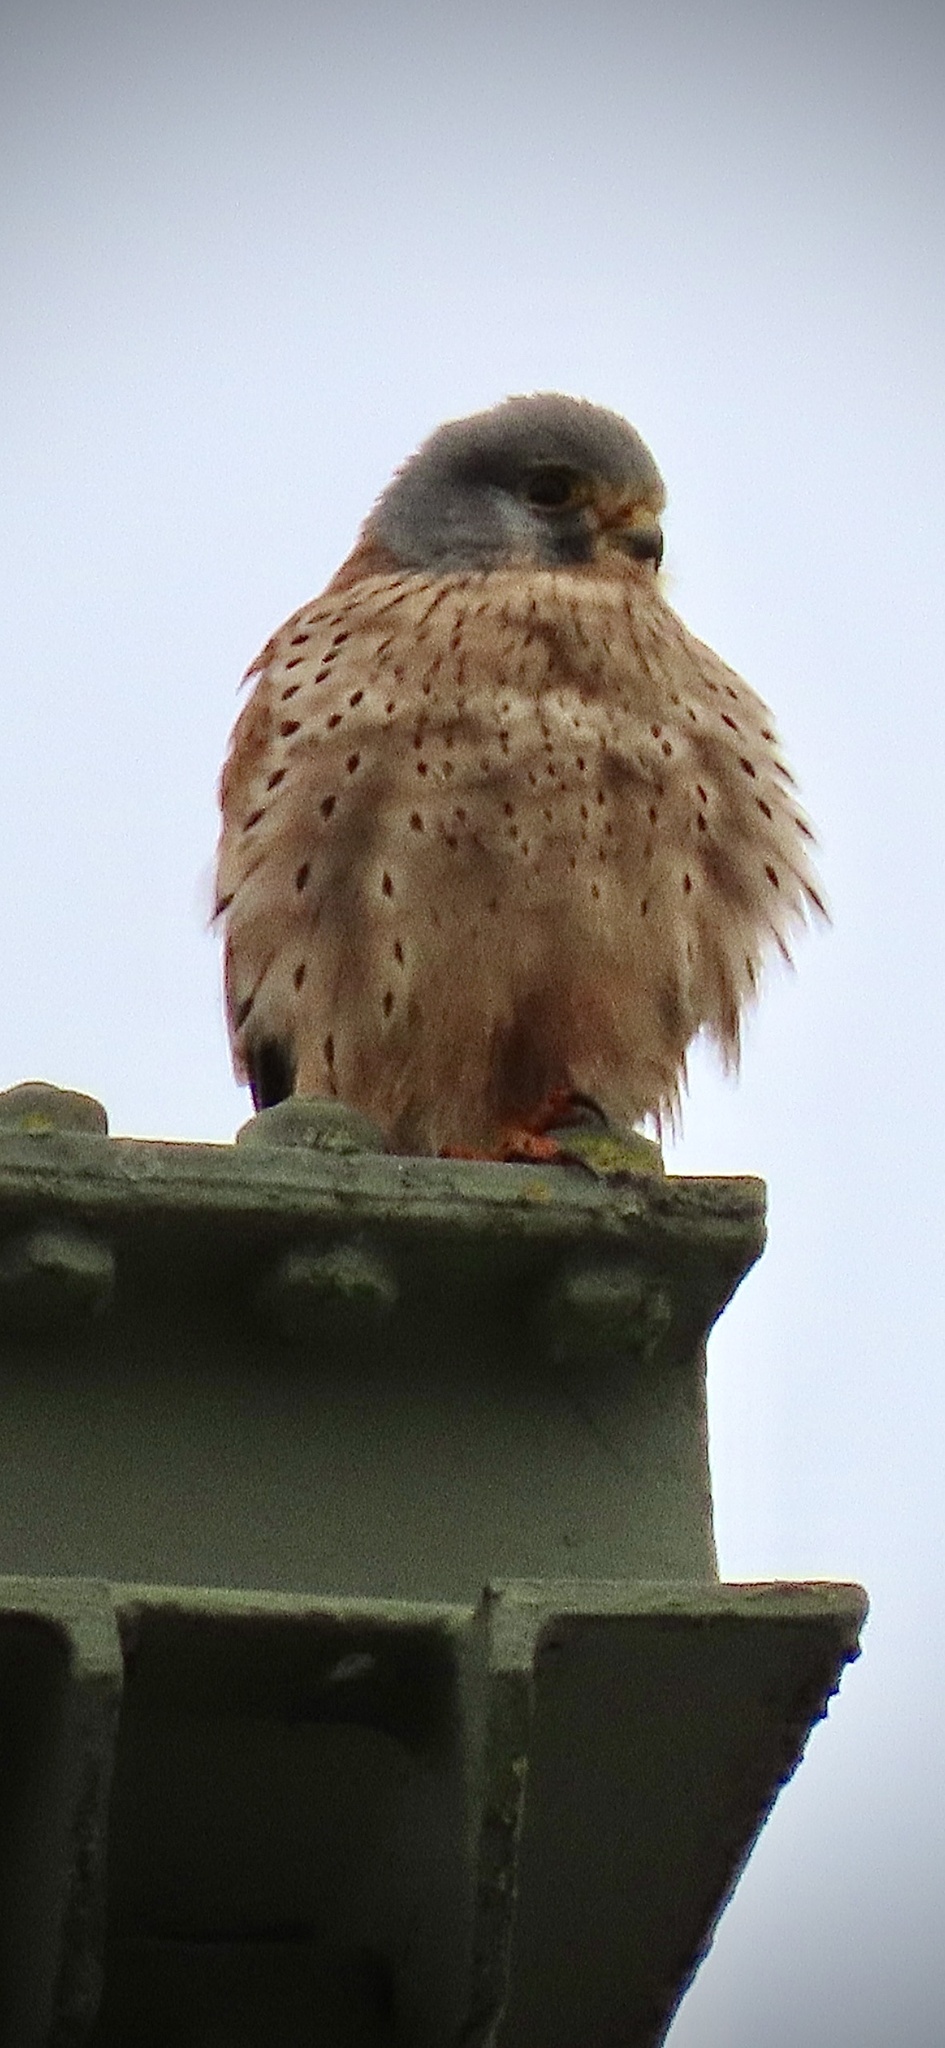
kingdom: Animalia
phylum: Chordata
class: Aves
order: Falconiformes
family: Falconidae
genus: Falco
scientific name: Falco tinnunculus
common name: Common kestrel
